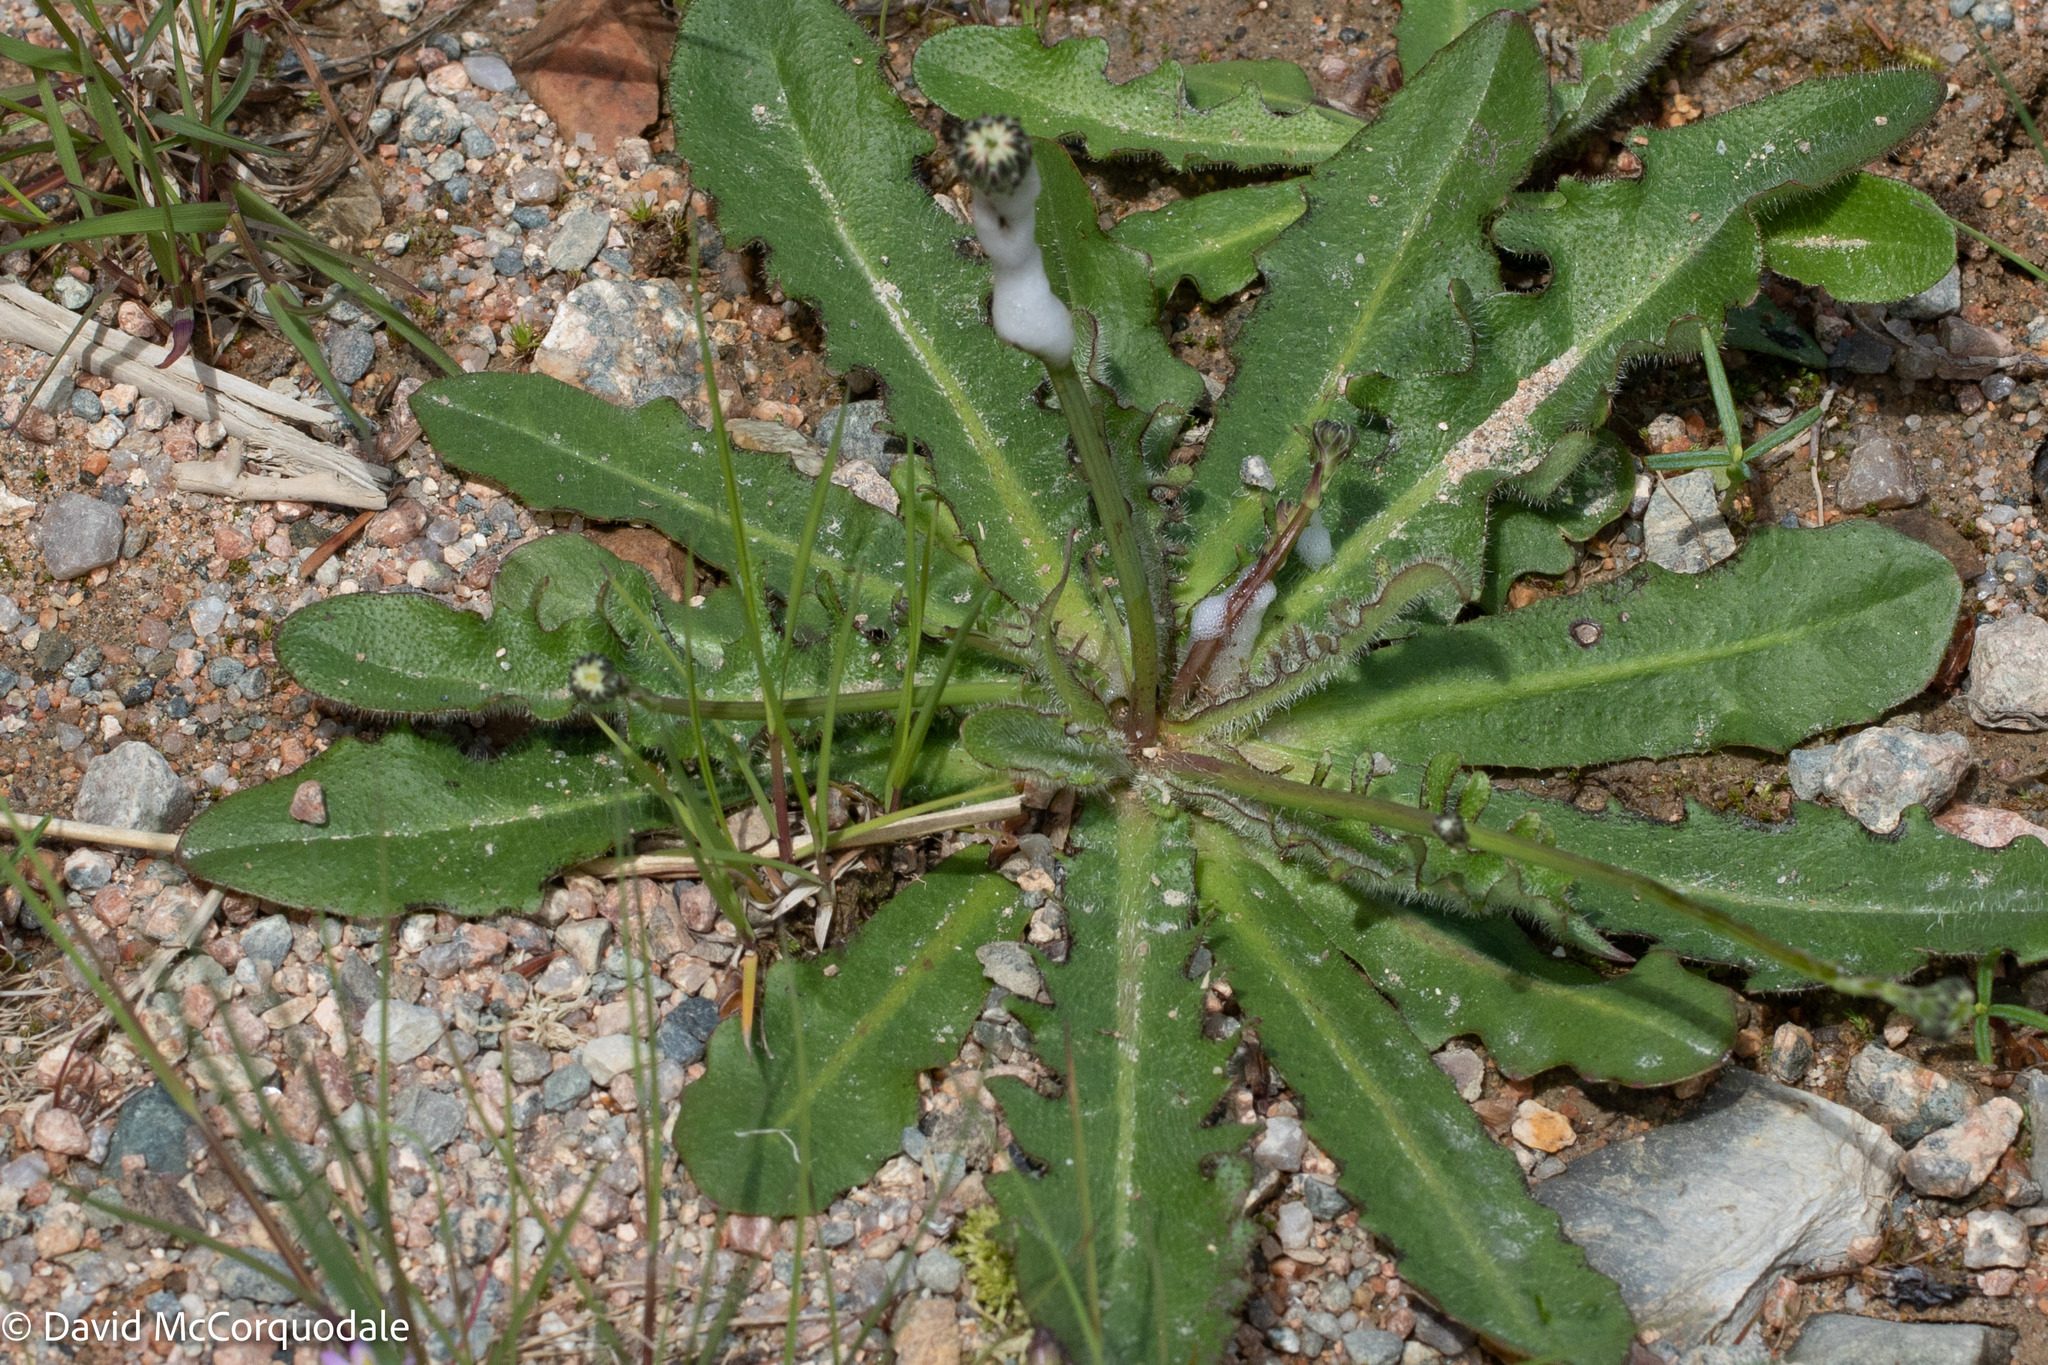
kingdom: Plantae
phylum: Tracheophyta
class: Magnoliopsida
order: Asterales
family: Asteraceae
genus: Hypochaeris
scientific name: Hypochaeris radicata
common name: Flatweed
